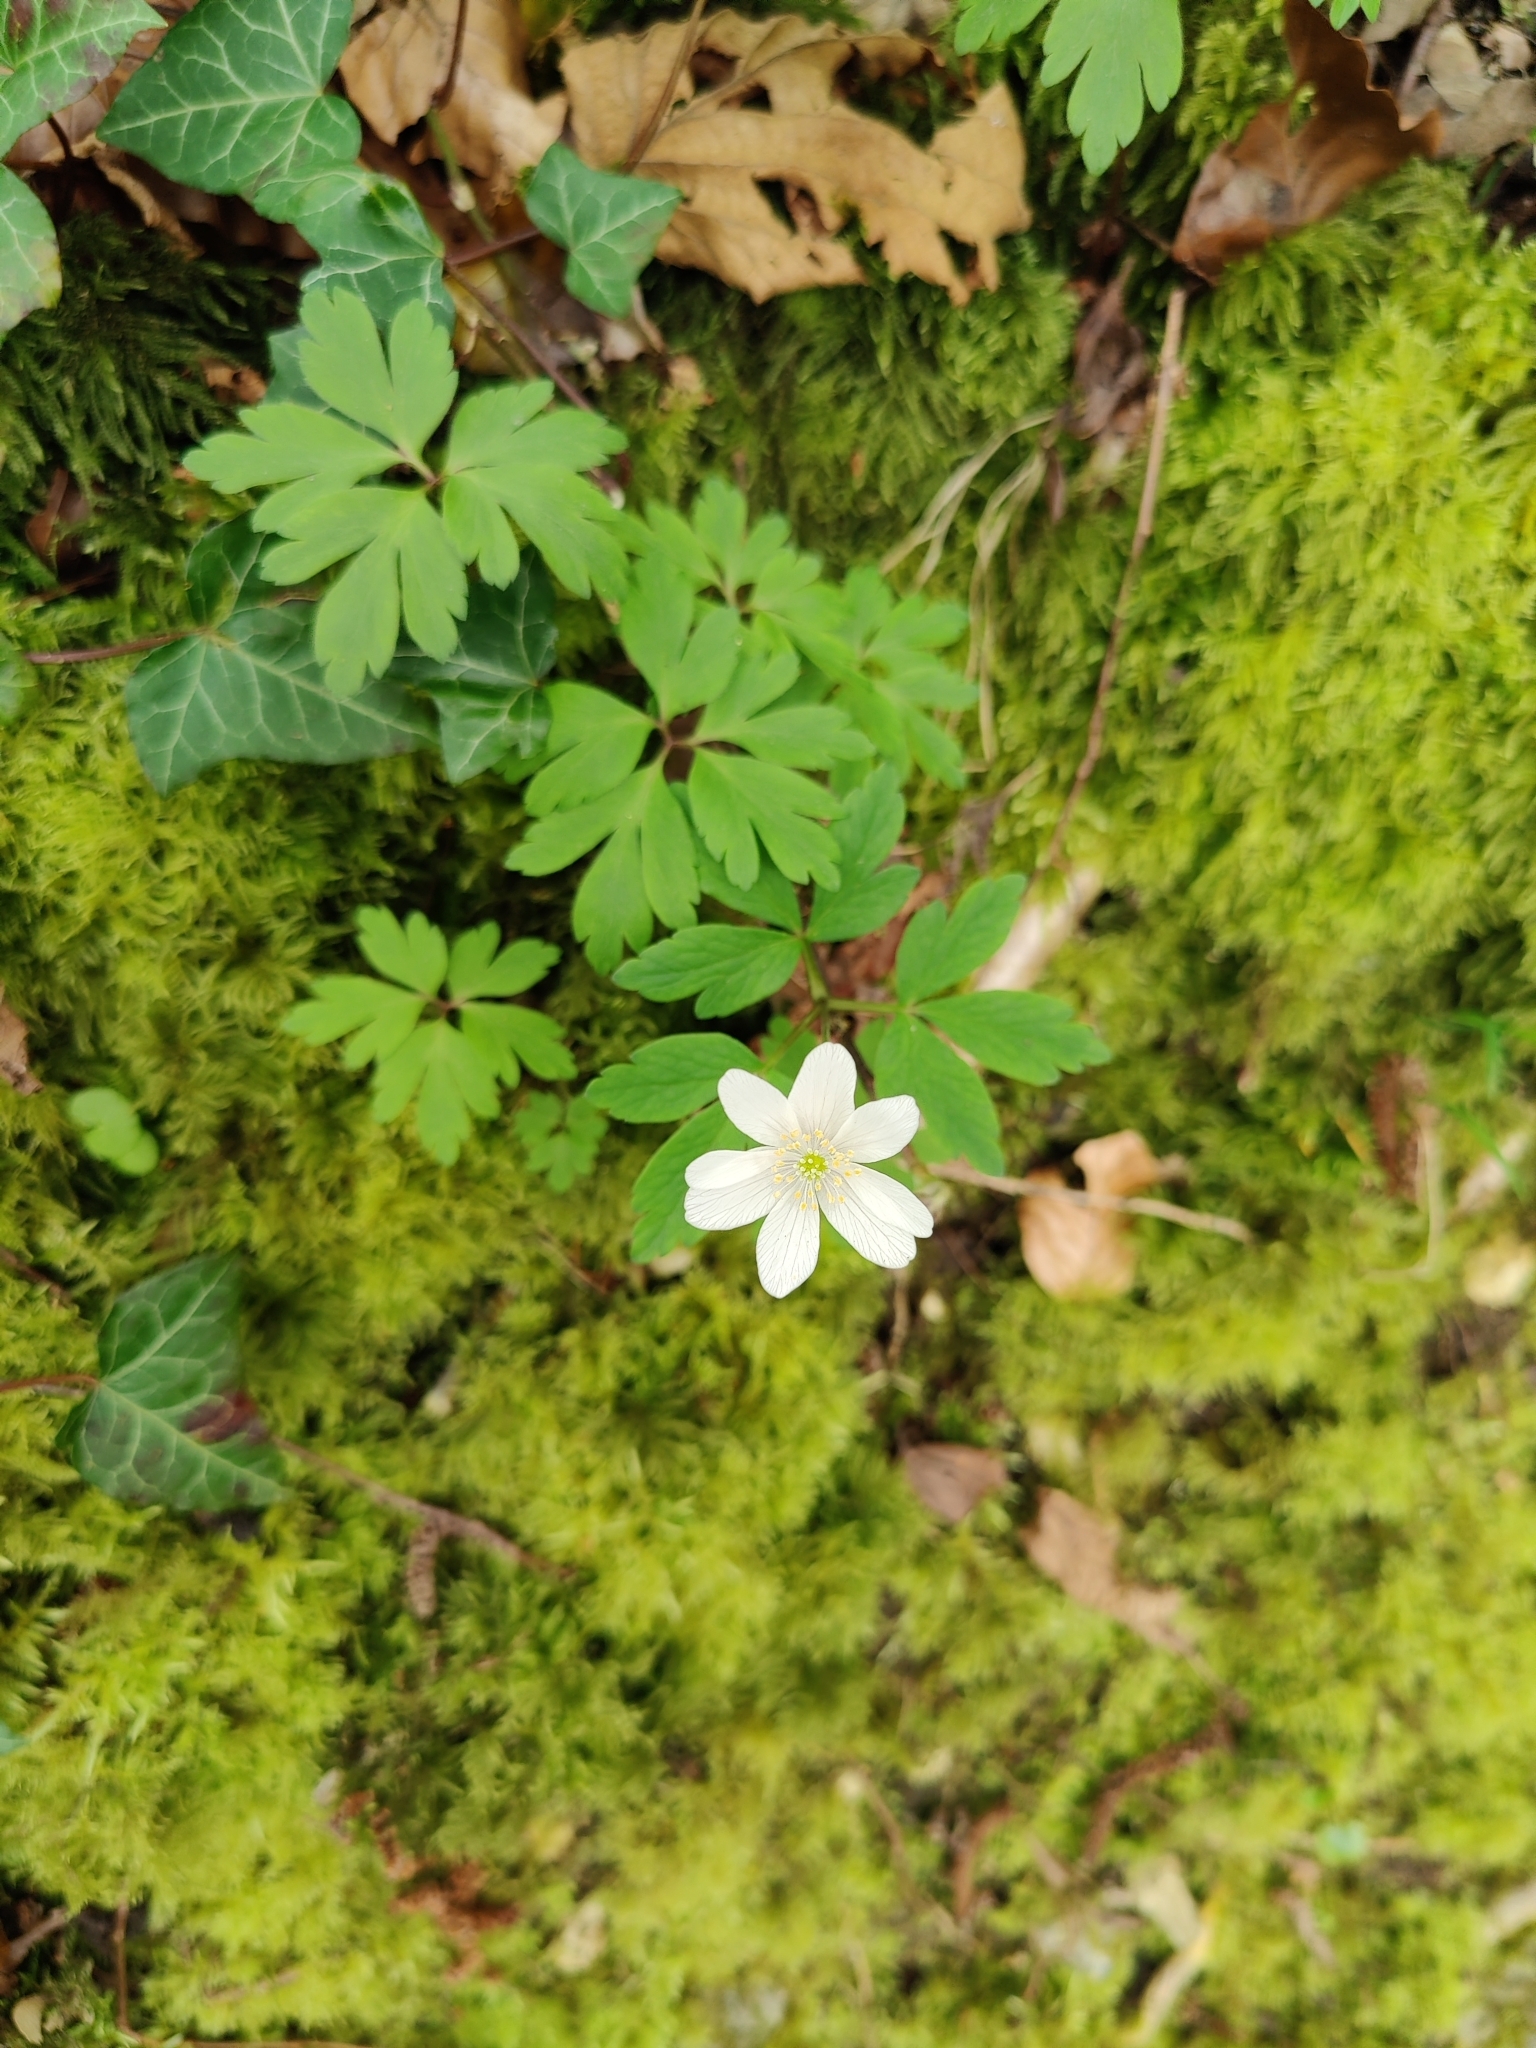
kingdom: Plantae
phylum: Tracheophyta
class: Magnoliopsida
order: Ranunculales
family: Ranunculaceae
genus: Anemone
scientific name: Anemone nemorosa
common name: Wood anemone
